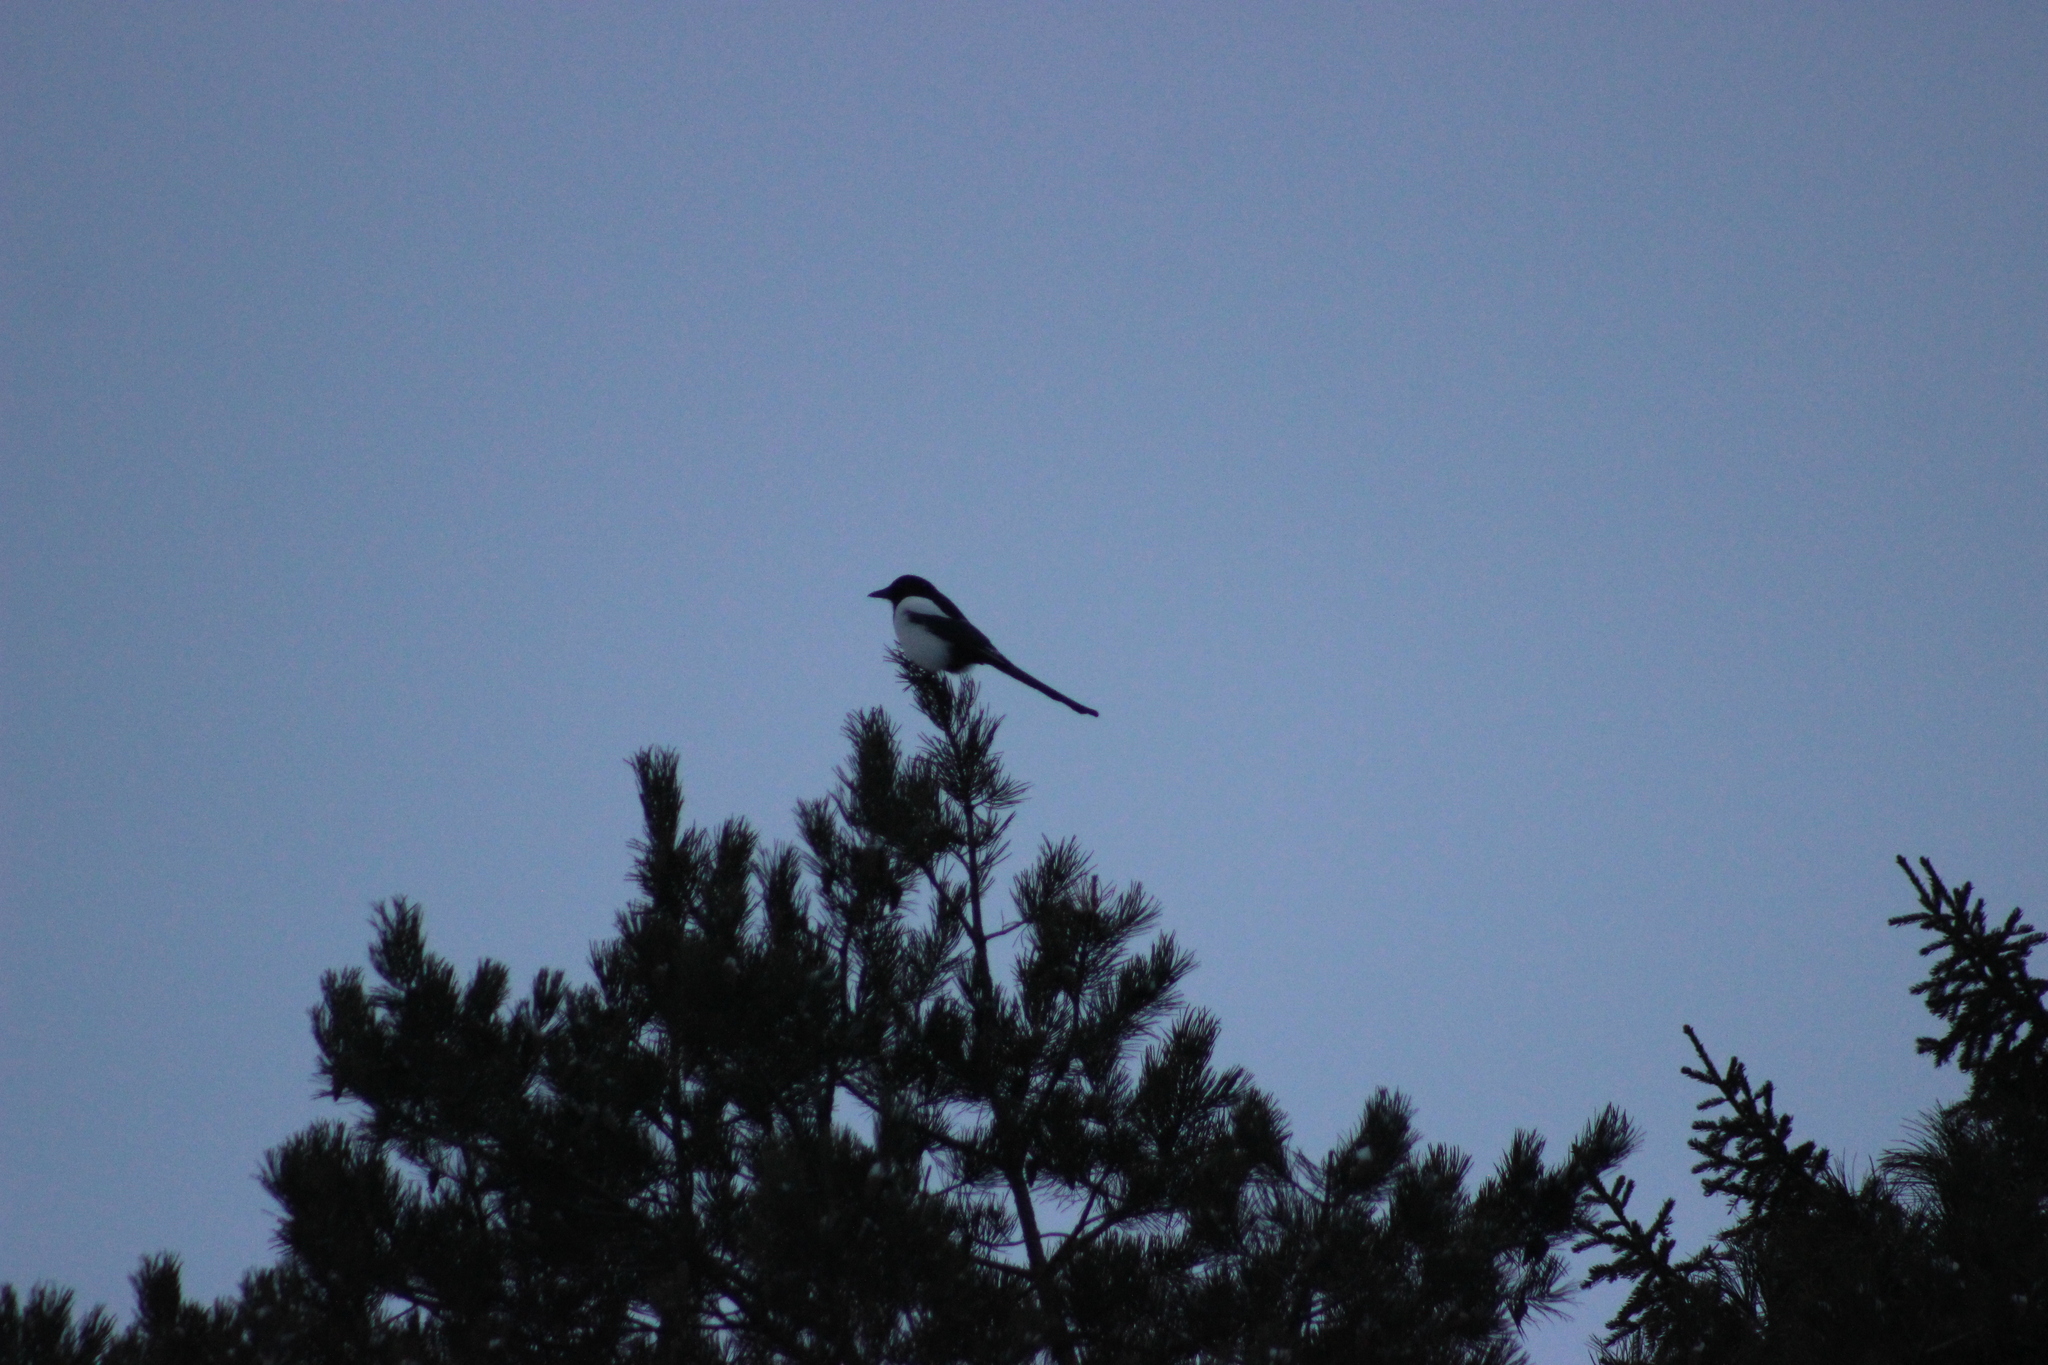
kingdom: Animalia
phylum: Chordata
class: Aves
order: Passeriformes
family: Corvidae
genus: Pica
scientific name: Pica pica
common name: Eurasian magpie
